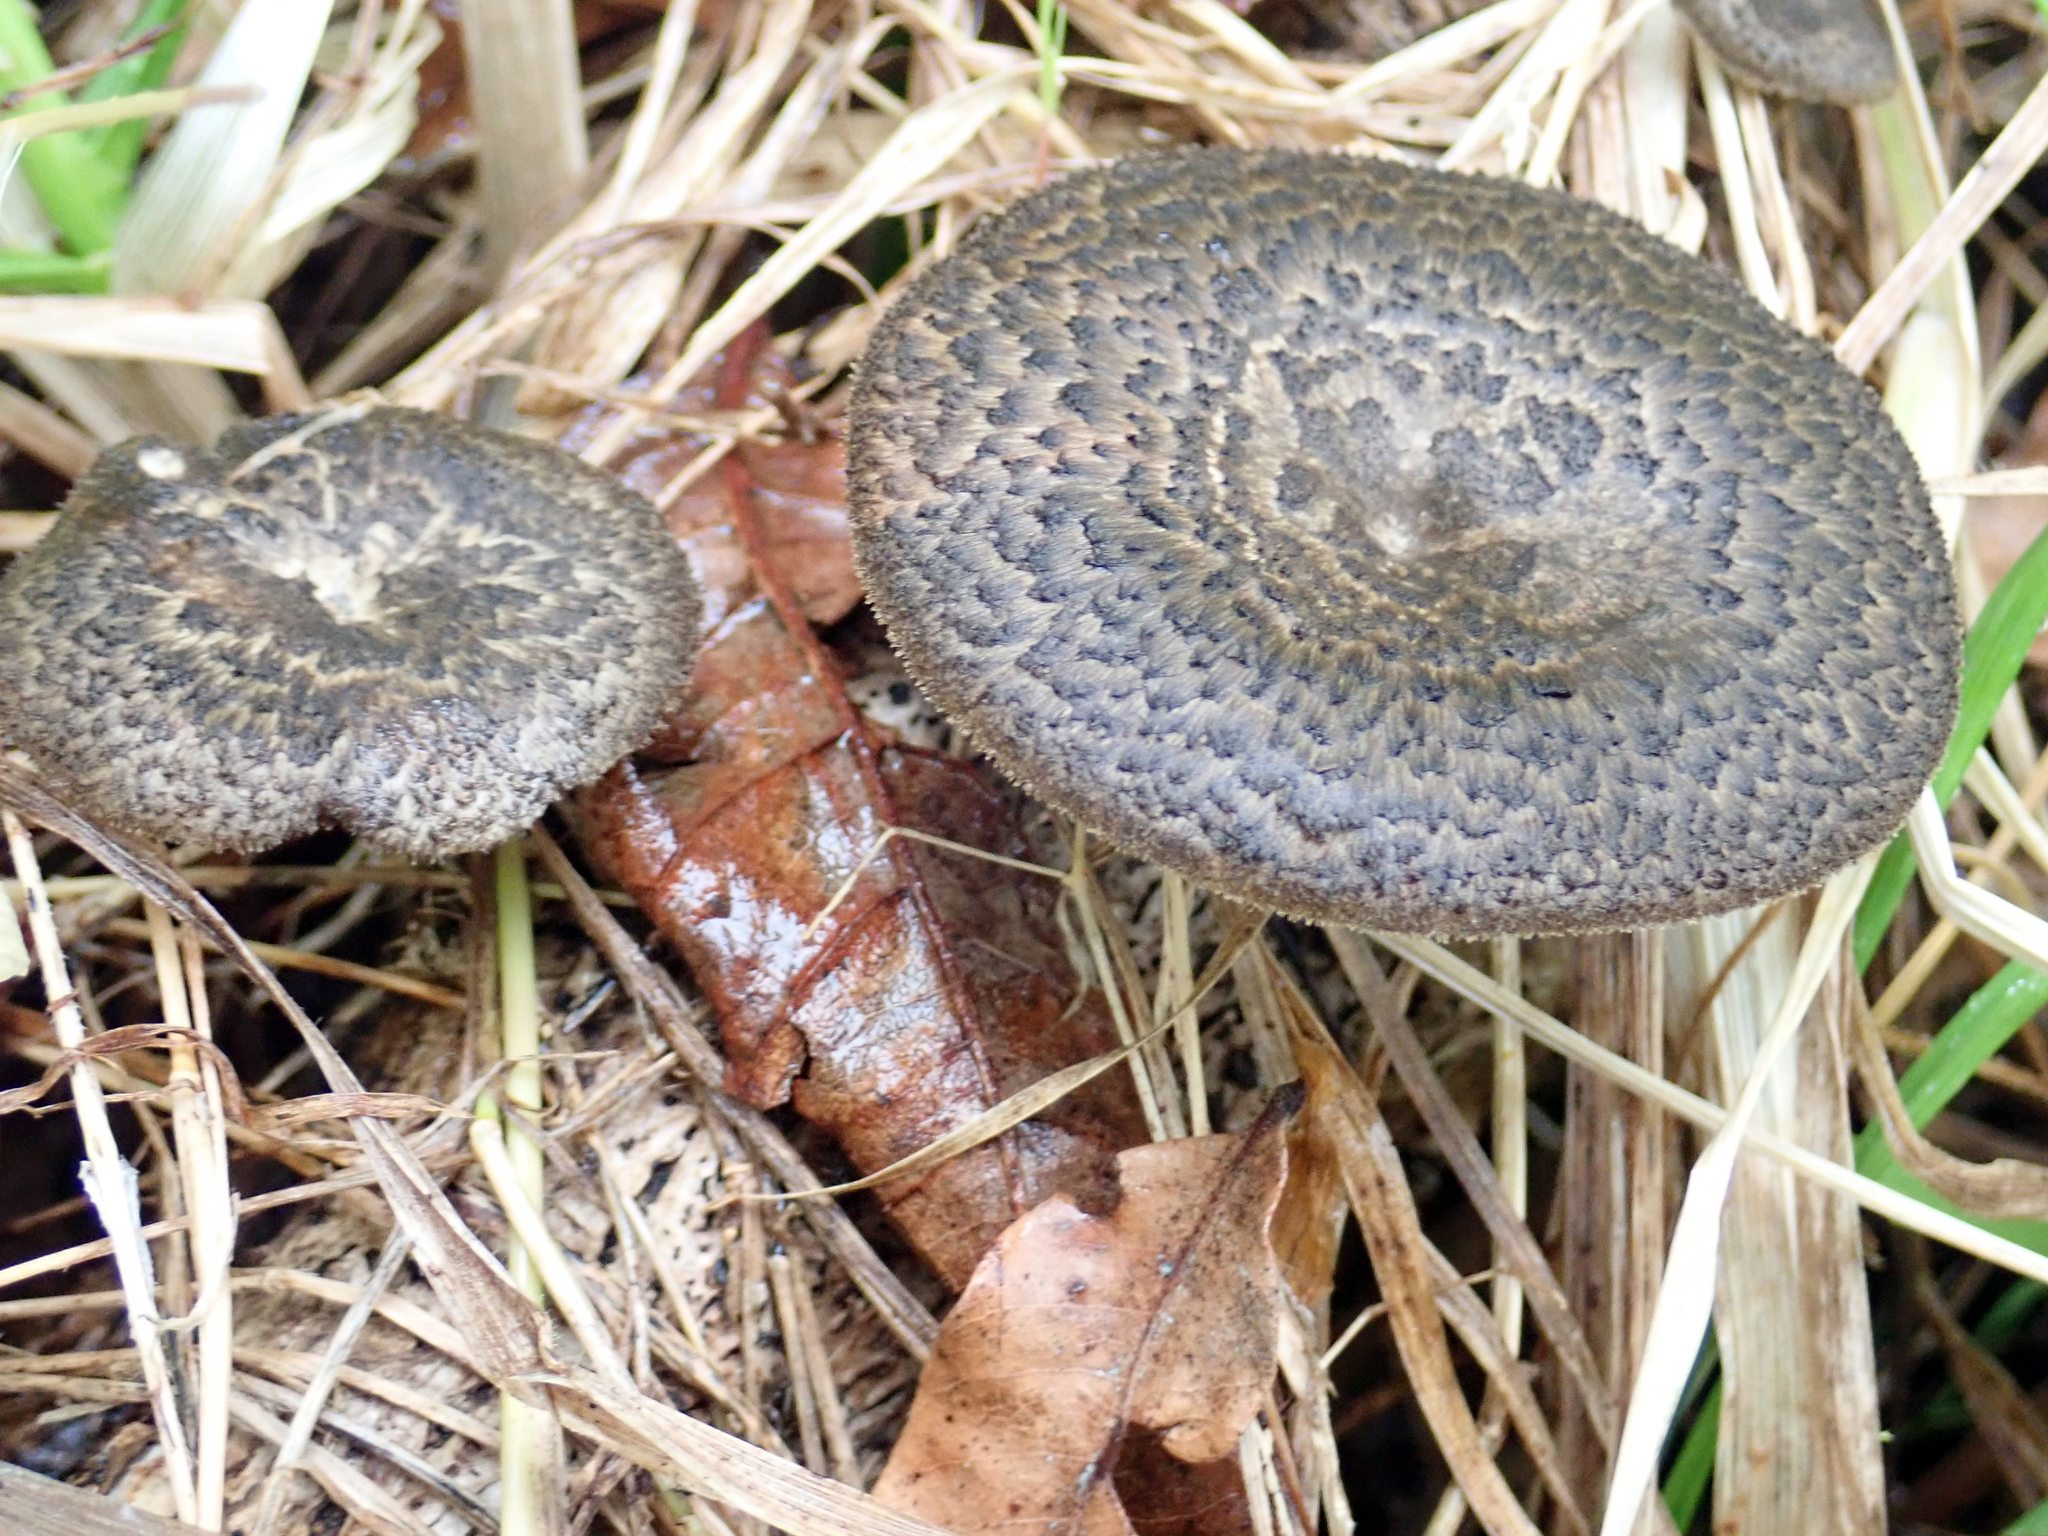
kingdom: Fungi
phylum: Basidiomycota
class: Agaricomycetes
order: Polyporales
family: Polyporaceae
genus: Lentinus
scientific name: Lentinus arcularius
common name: Spring polypore
